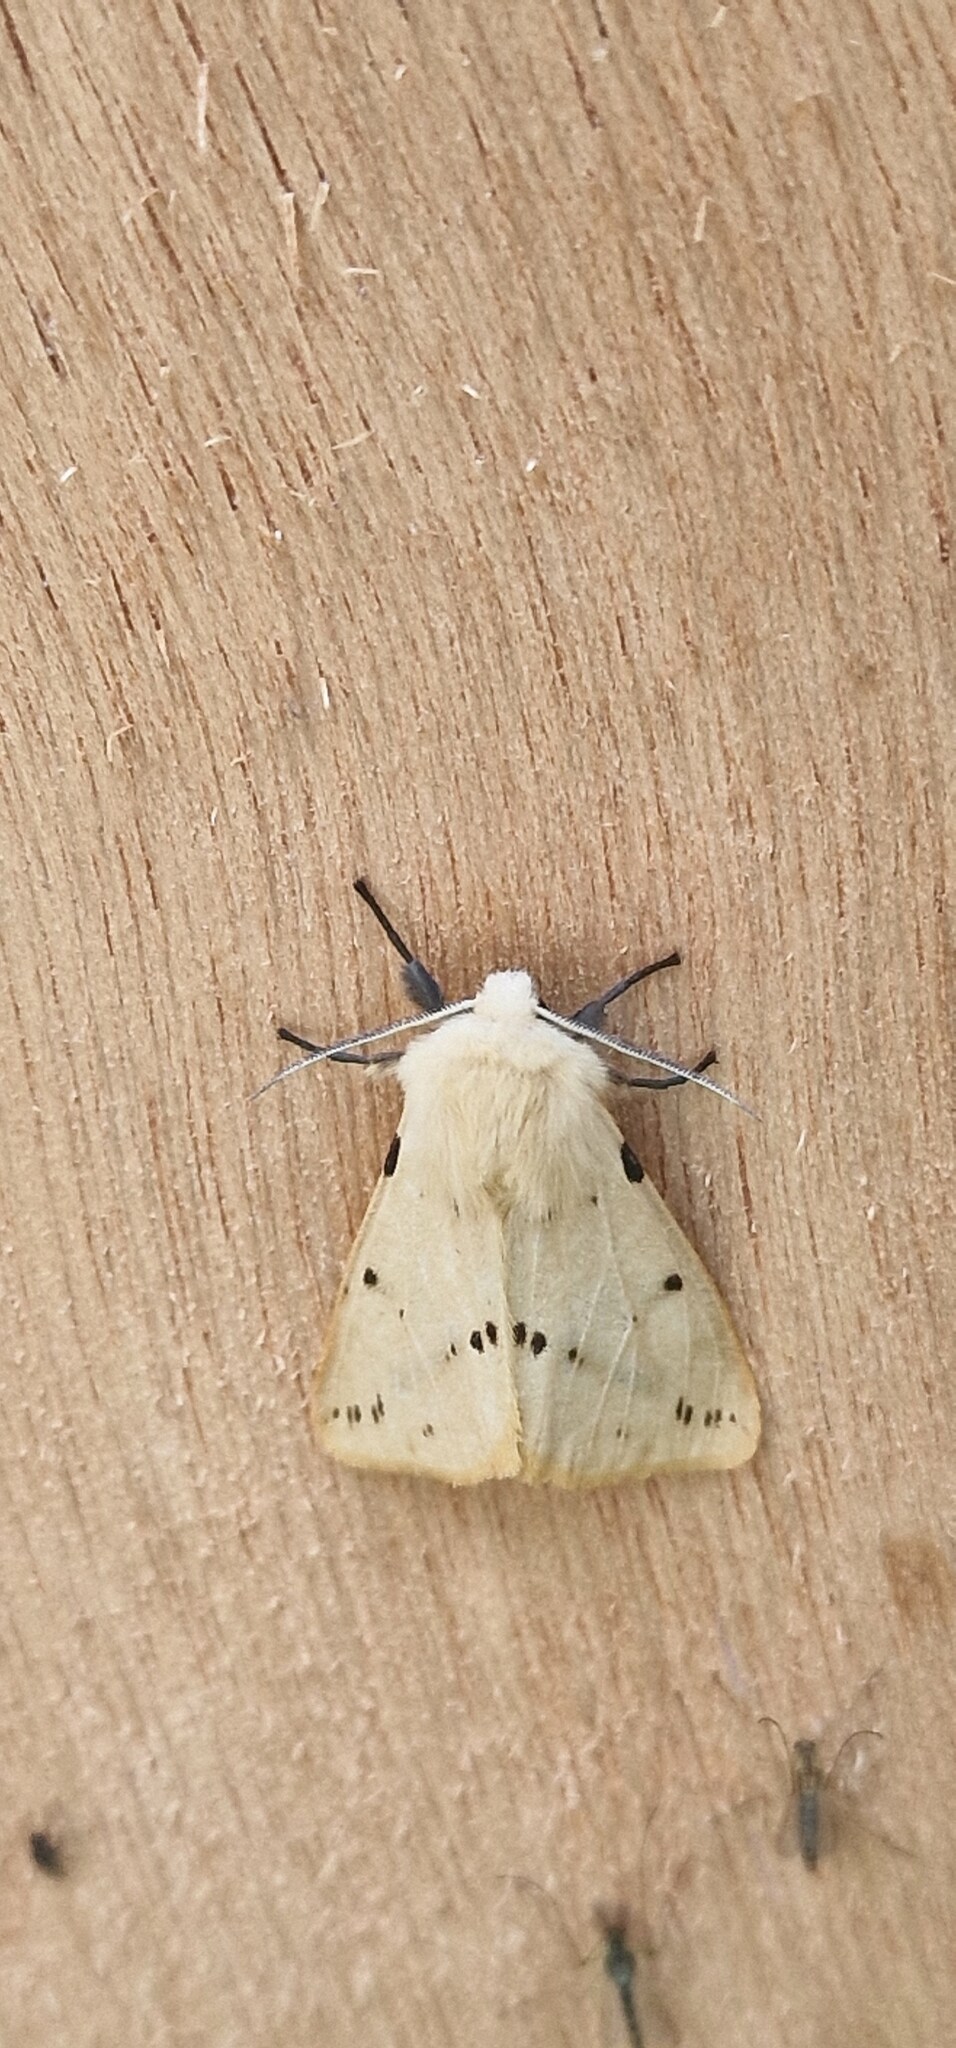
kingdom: Animalia
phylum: Arthropoda
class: Insecta
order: Lepidoptera
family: Erebidae
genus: Spilarctia
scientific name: Spilarctia lutea
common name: Buff ermine
